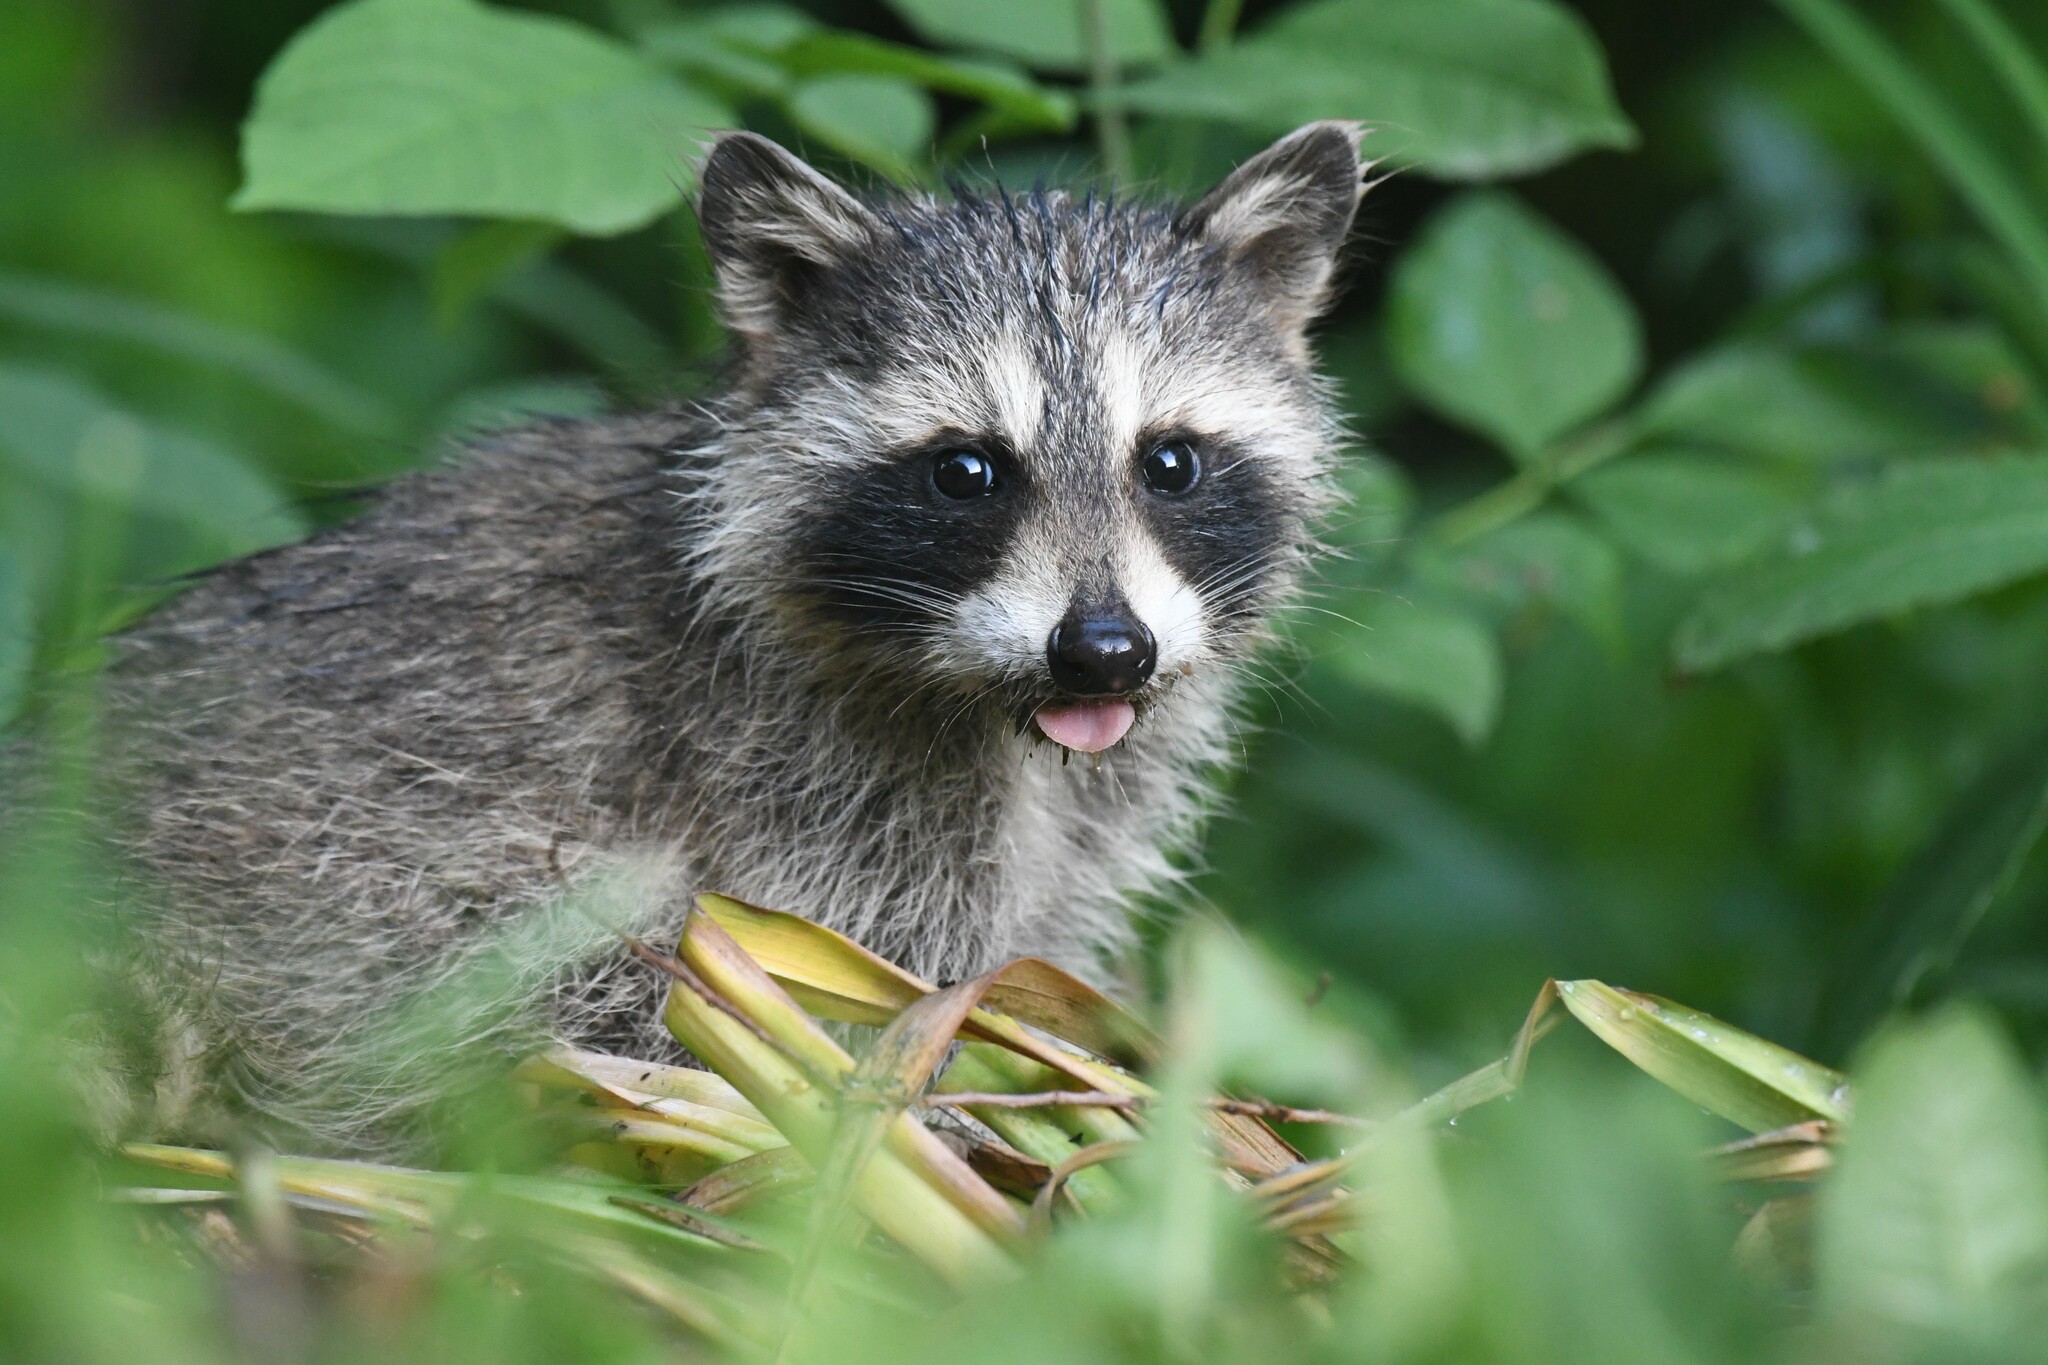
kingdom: Animalia
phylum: Chordata
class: Mammalia
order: Carnivora
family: Procyonidae
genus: Procyon
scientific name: Procyon lotor
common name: Raccoon
